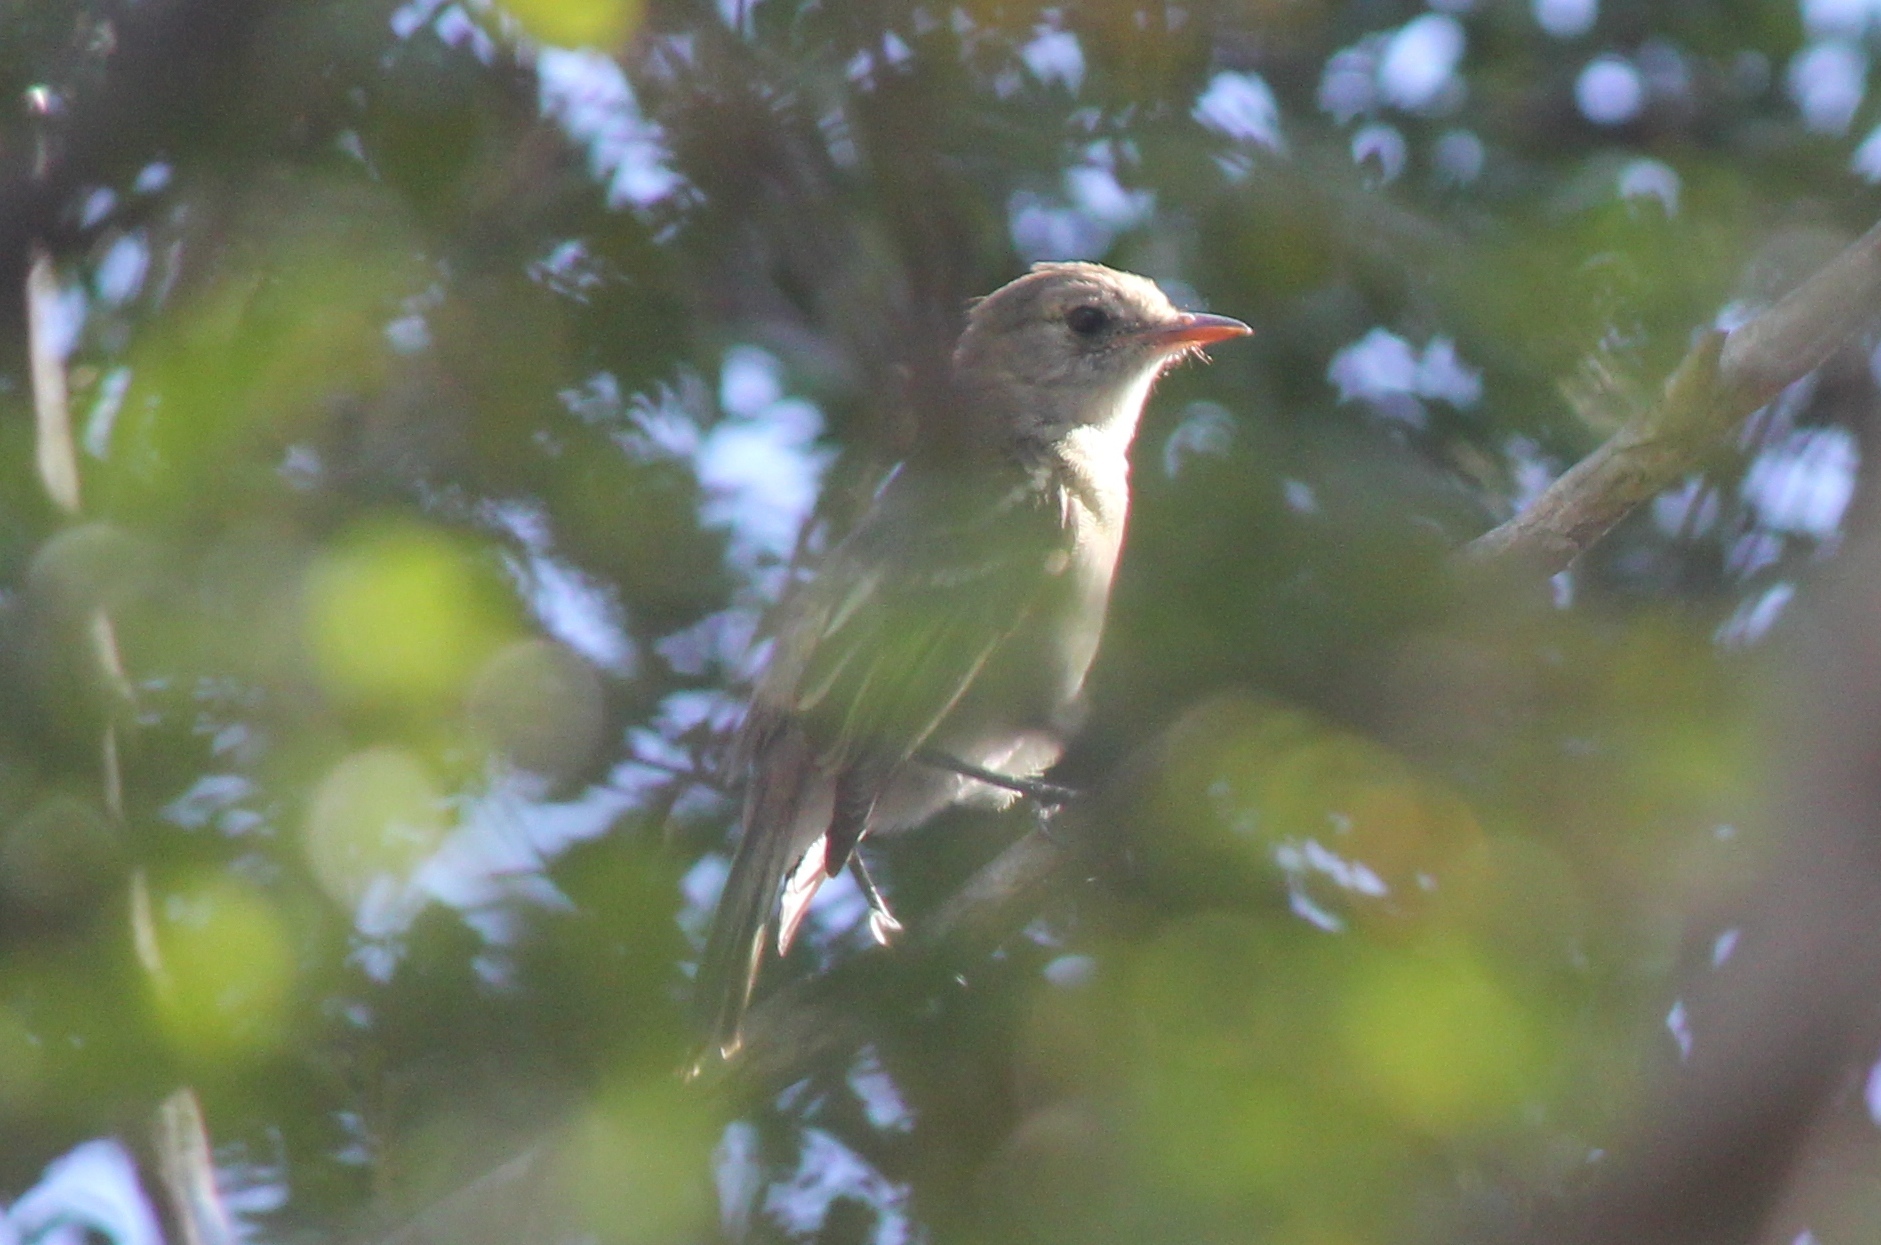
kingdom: Animalia
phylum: Chordata
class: Aves
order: Passeriformes
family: Tyrannidae
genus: Elaenia
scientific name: Elaenia martinica
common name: Caribbean elaenia
